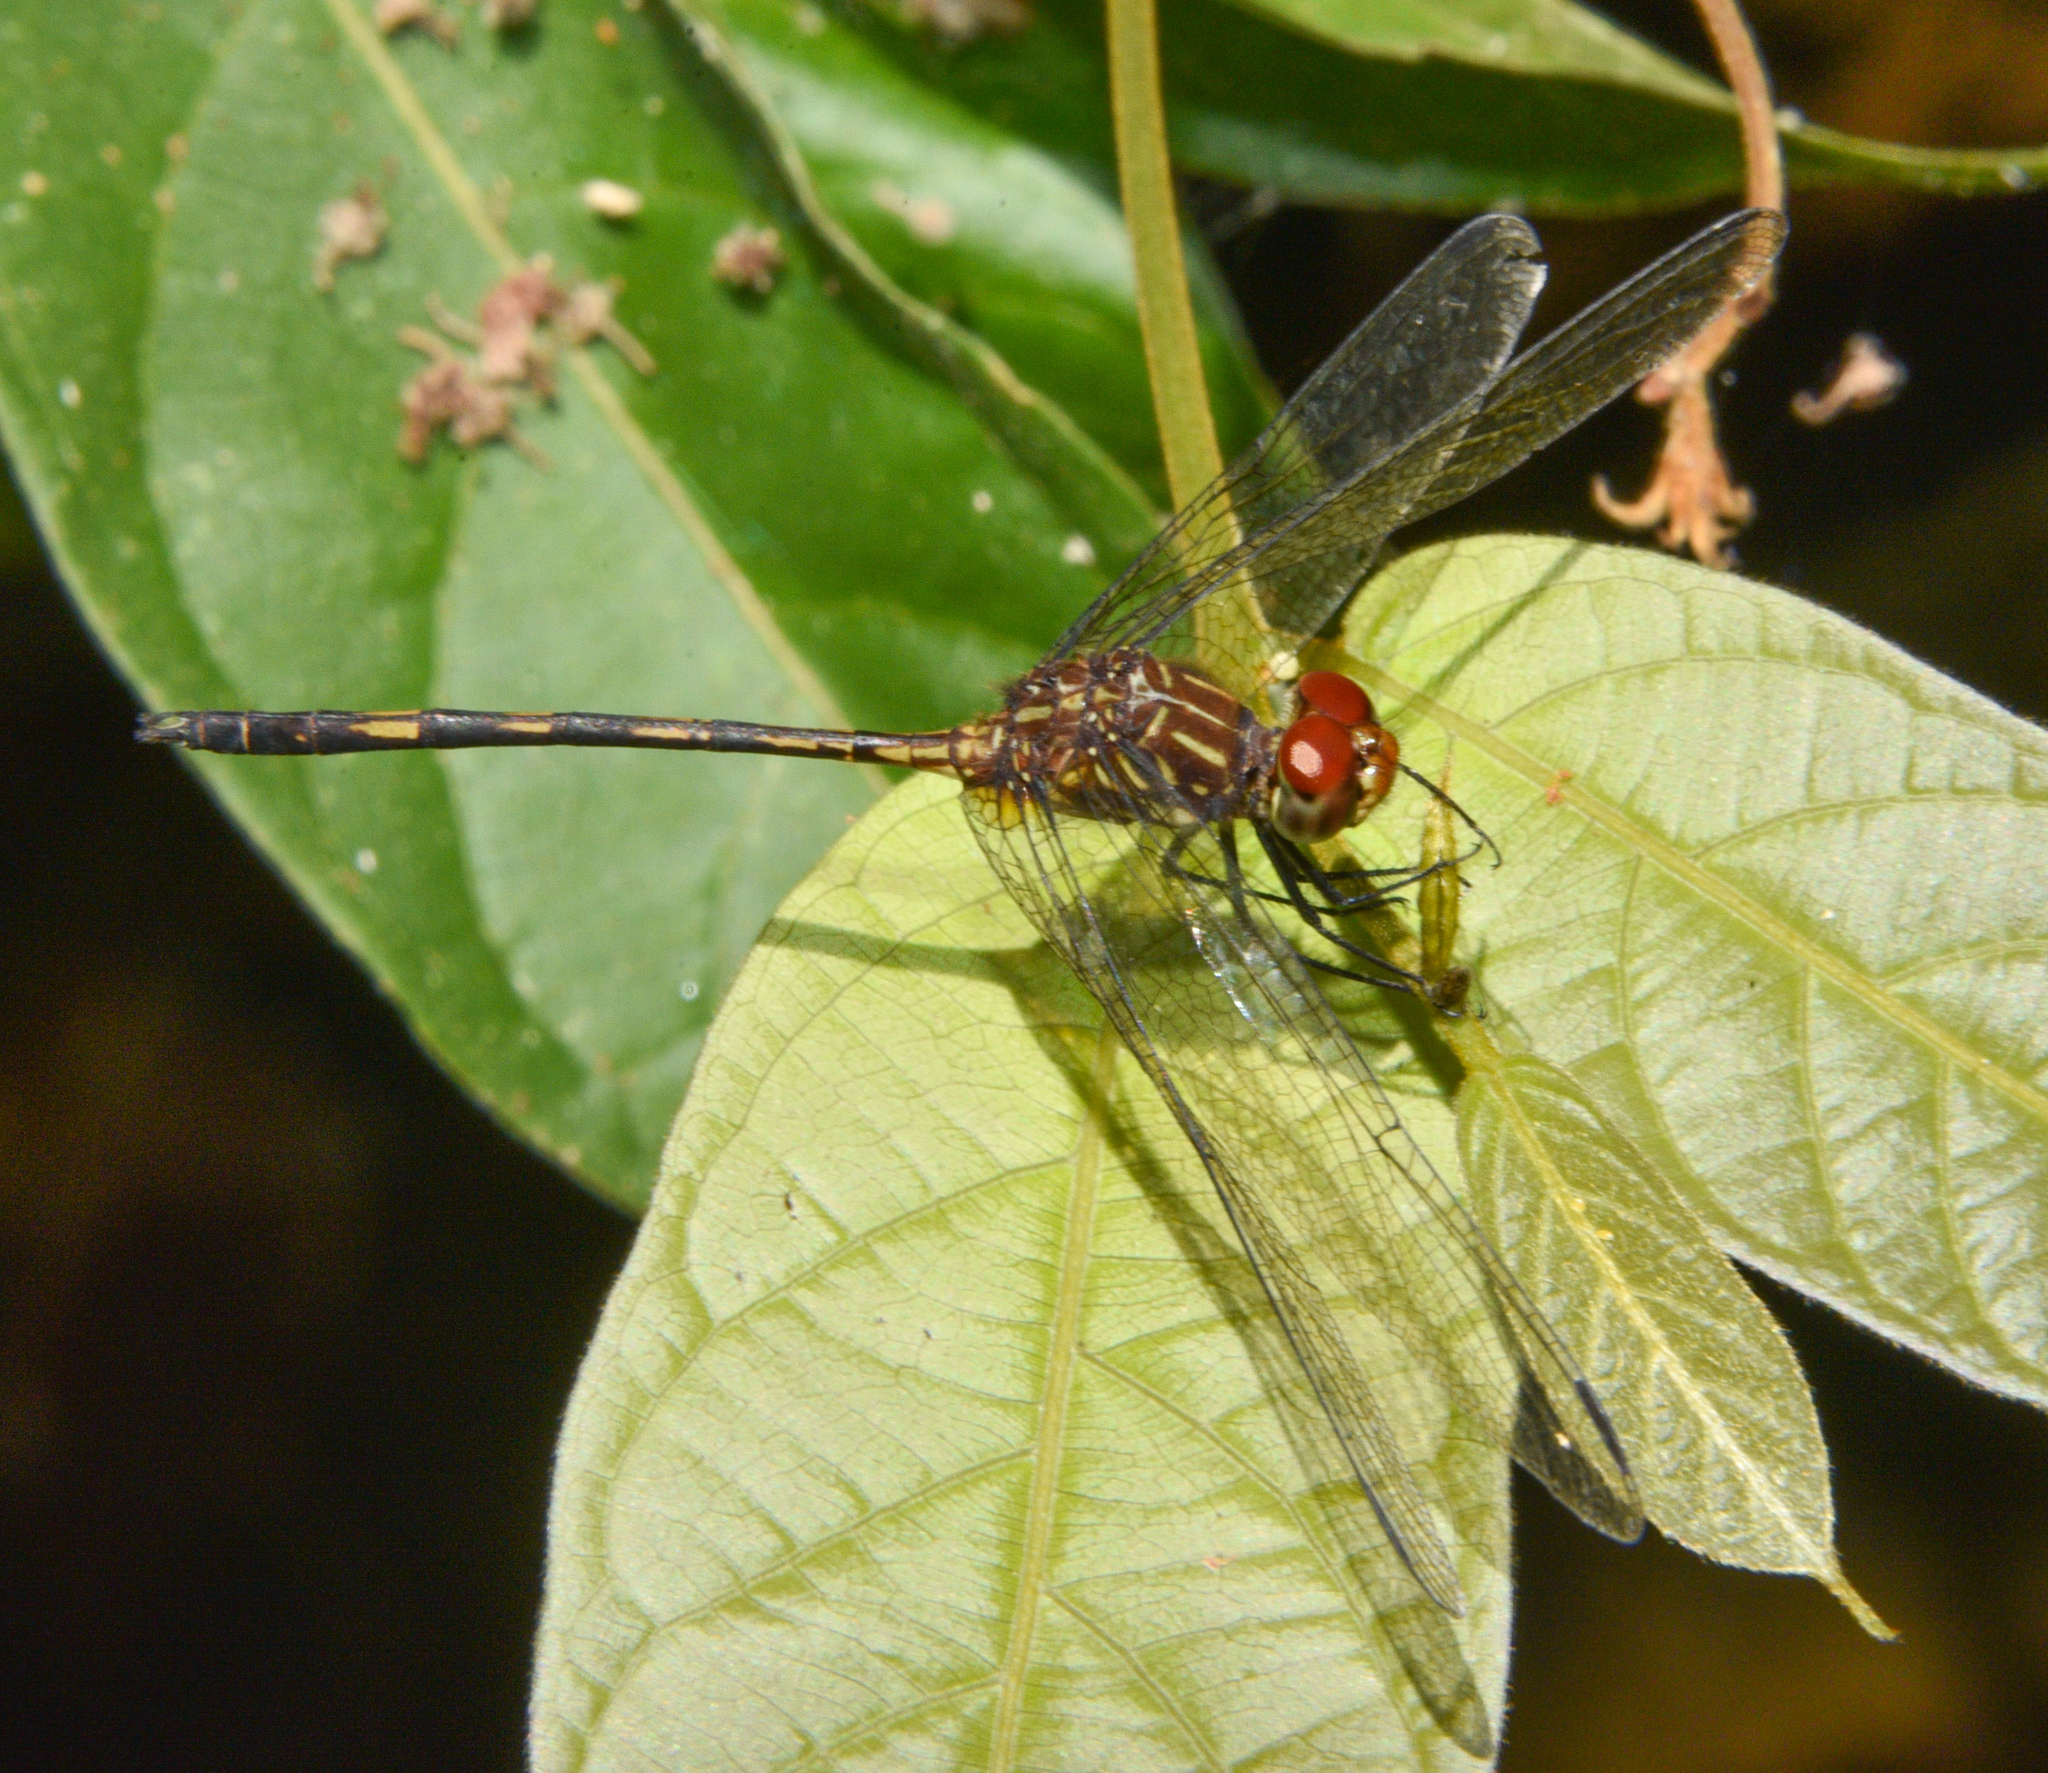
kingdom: Animalia
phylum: Arthropoda
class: Insecta
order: Odonata
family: Libellulidae
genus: Dythemis
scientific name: Dythemis sterilis
